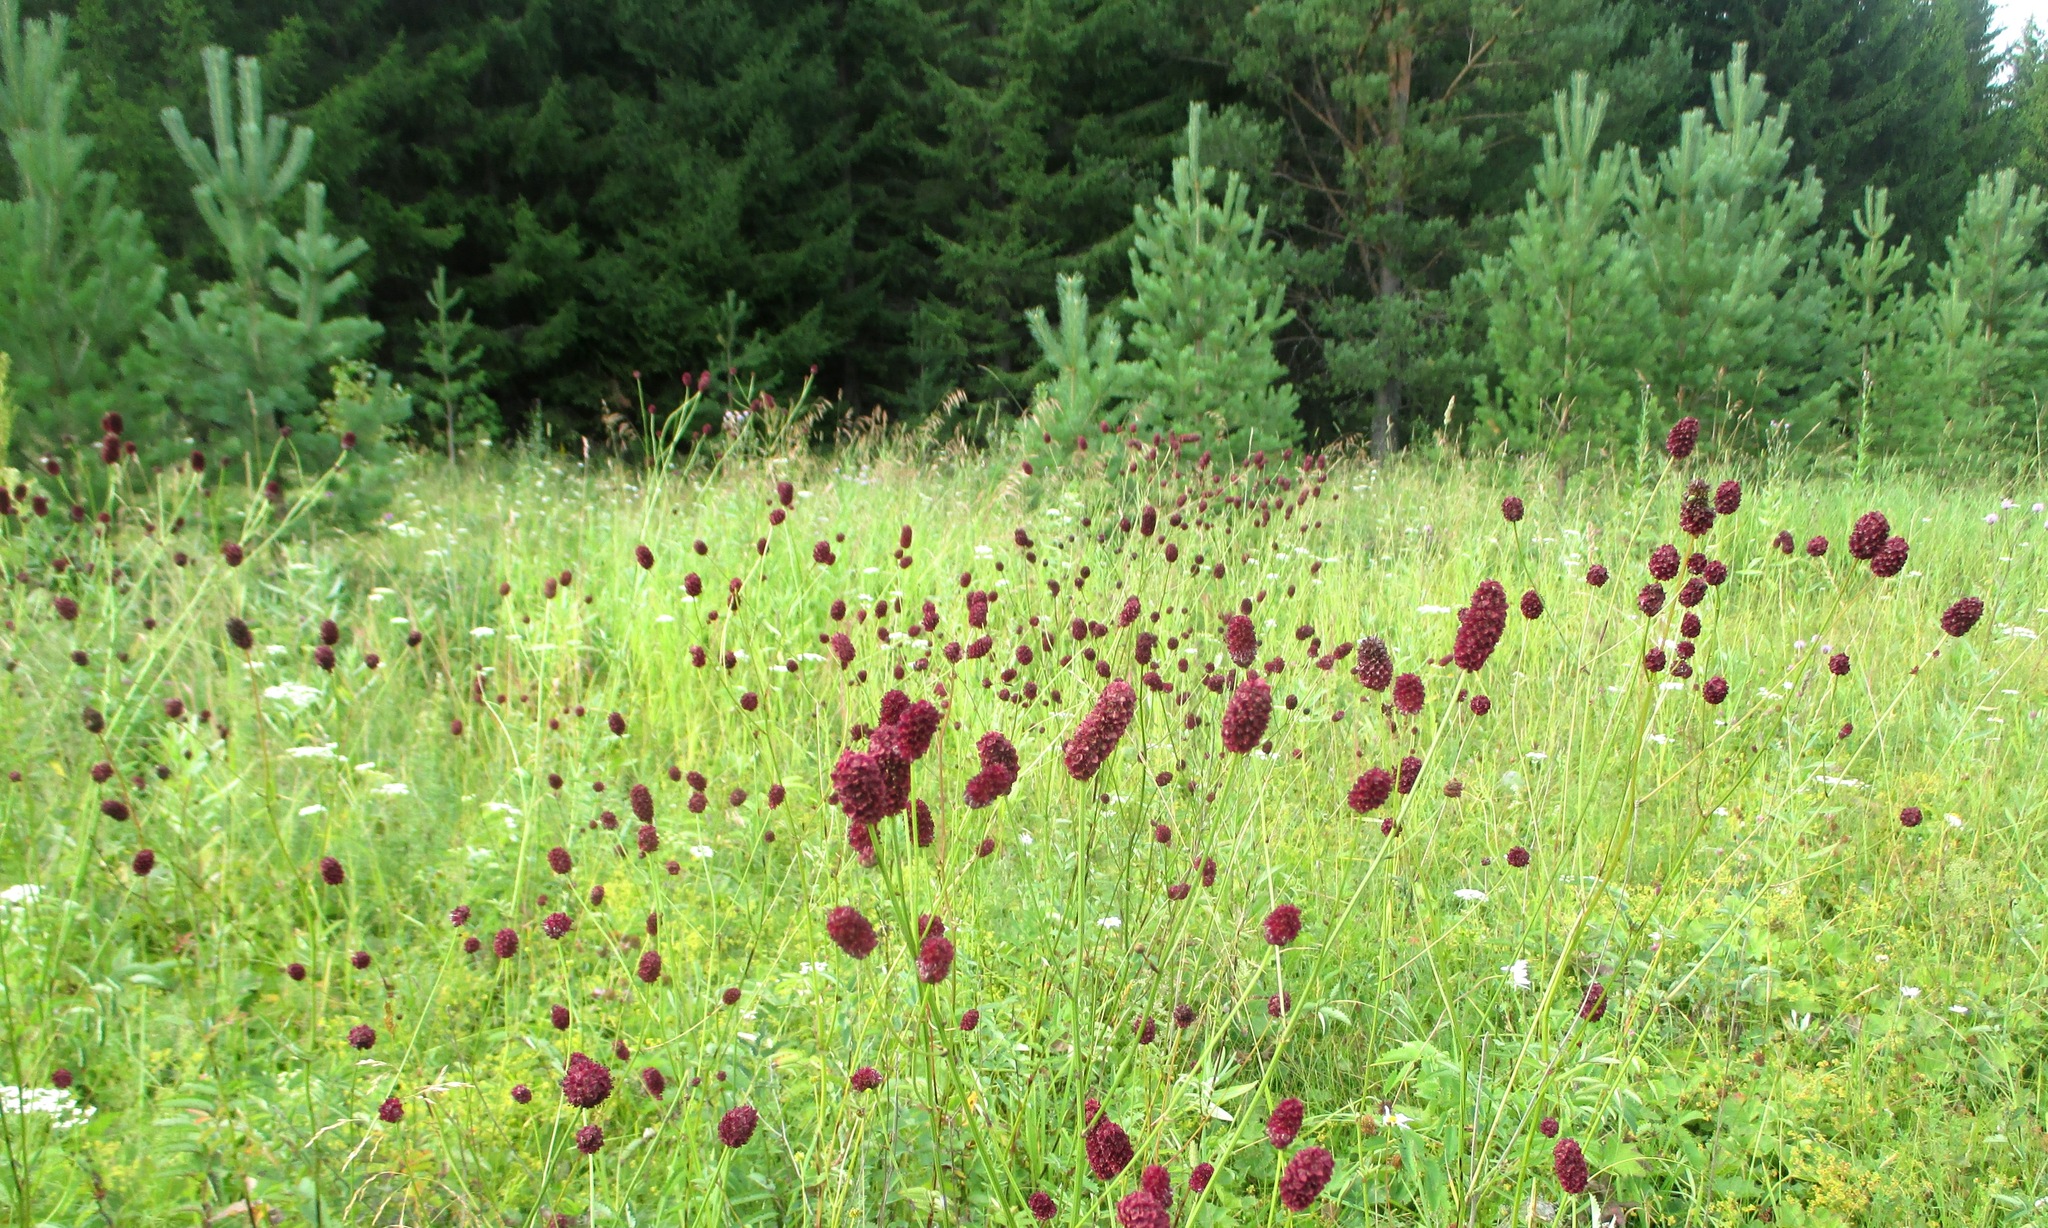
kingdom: Plantae
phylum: Tracheophyta
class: Magnoliopsida
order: Rosales
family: Rosaceae
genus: Sanguisorba
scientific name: Sanguisorba officinalis
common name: Great burnet
